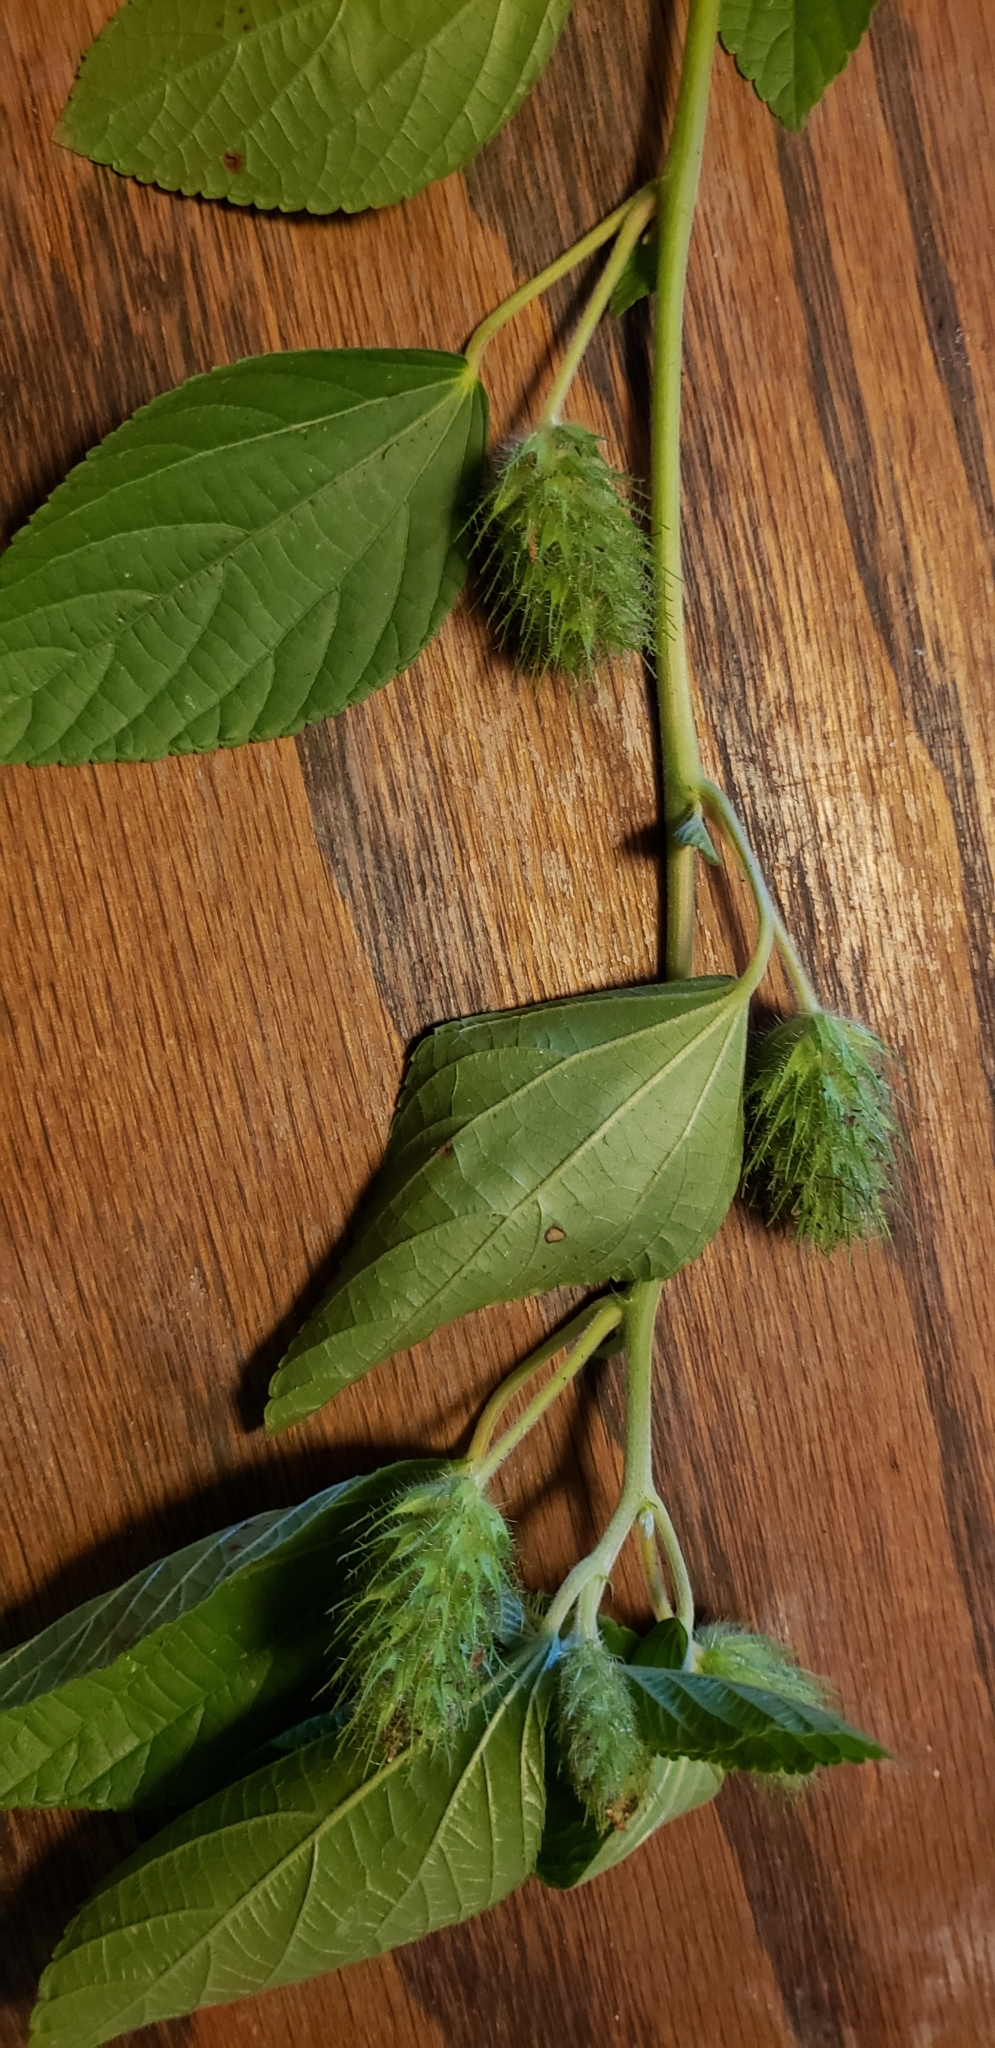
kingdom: Plantae
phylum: Tracheophyta
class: Magnoliopsida
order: Malpighiales
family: Euphorbiaceae
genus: Acalypha
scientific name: Acalypha arvensis
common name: Field copperleaf
